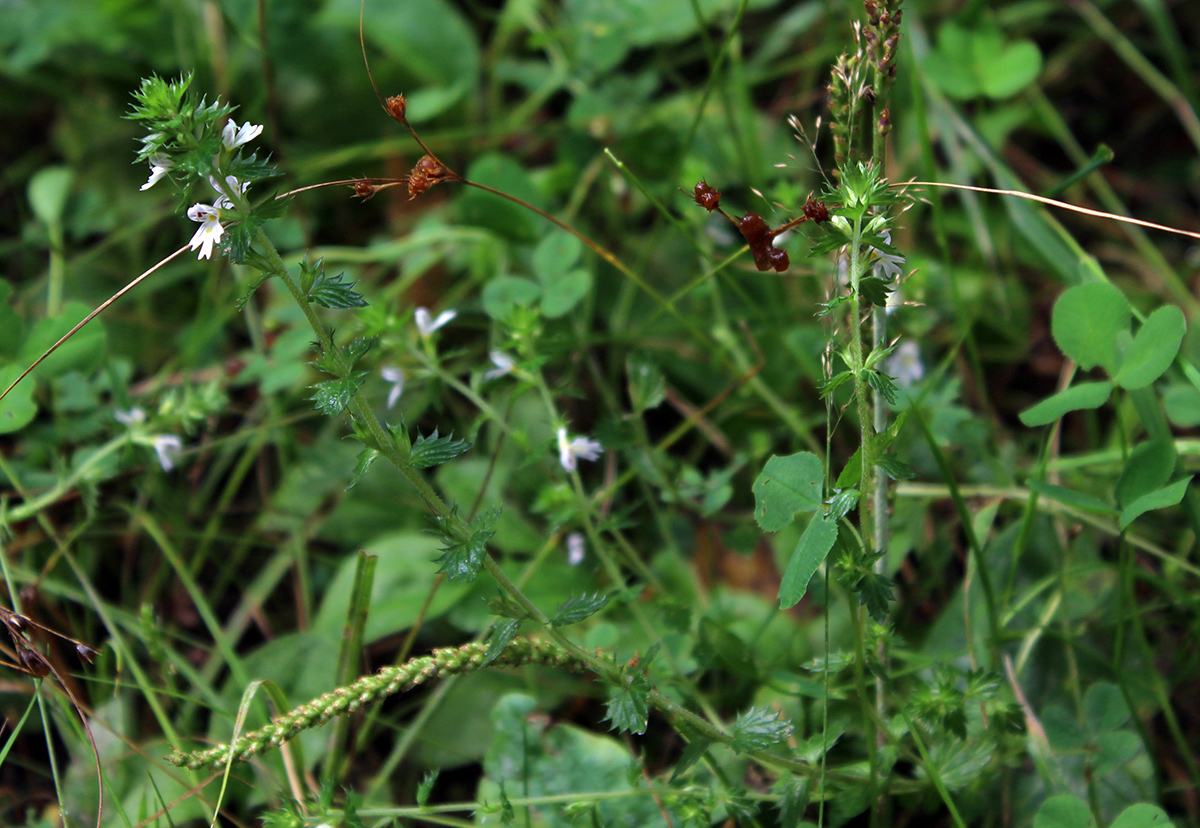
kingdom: Plantae
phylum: Tracheophyta
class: Magnoliopsida
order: Lamiales
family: Orobanchaceae
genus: Euphrasia
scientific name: Euphrasia vernalis
